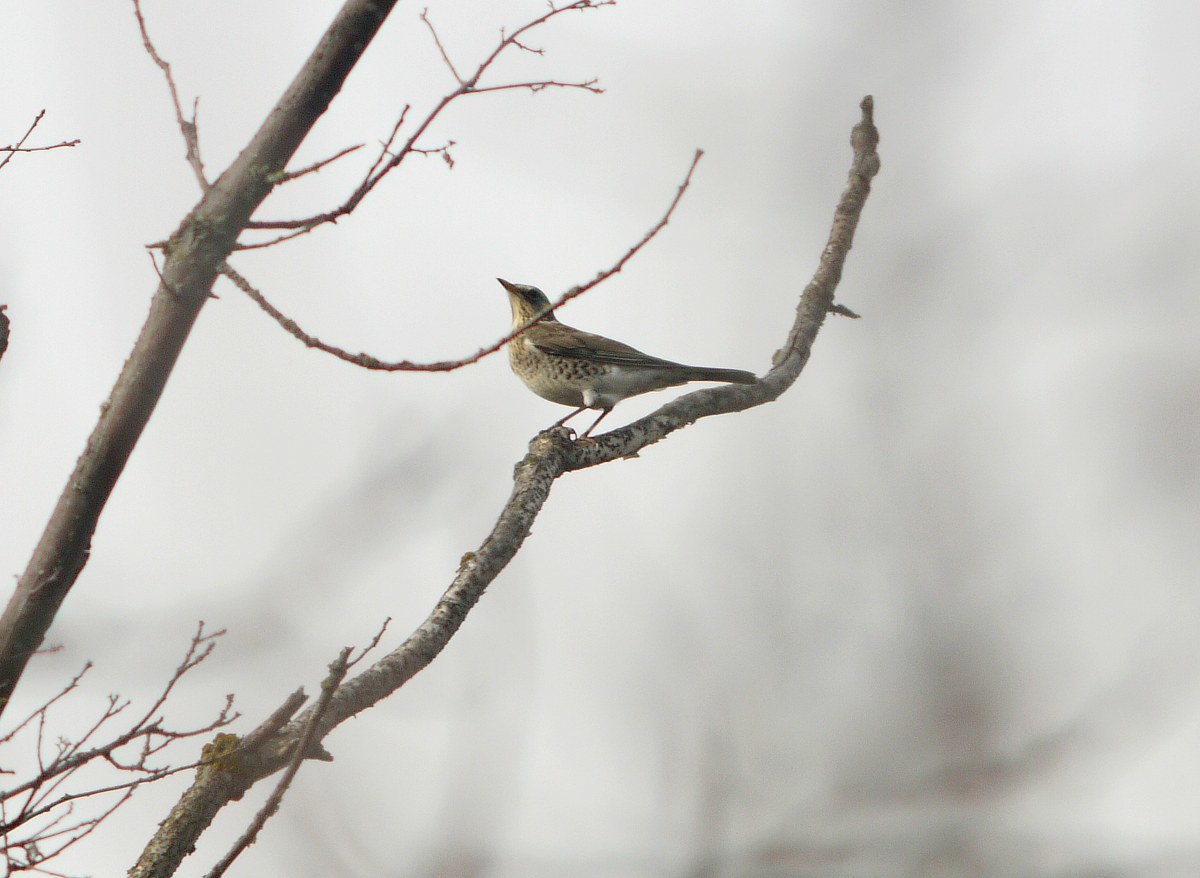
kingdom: Animalia
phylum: Chordata
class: Aves
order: Passeriformes
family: Turdidae
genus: Turdus
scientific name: Turdus pilaris
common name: Fieldfare
